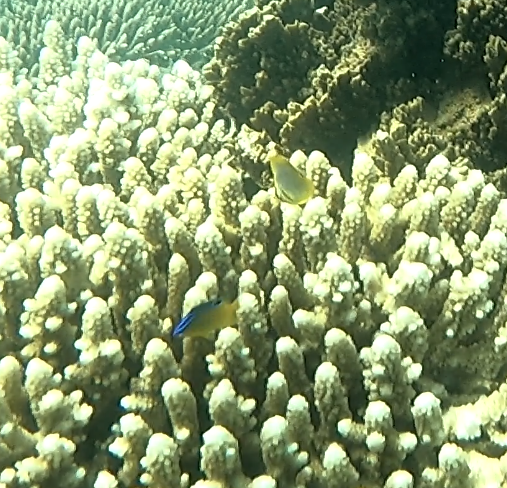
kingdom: Animalia
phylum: Chordata
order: Perciformes
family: Chaetodontidae
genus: Chaetodon
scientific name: Chaetodon aureofasciatus
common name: Golden butterflyfish
